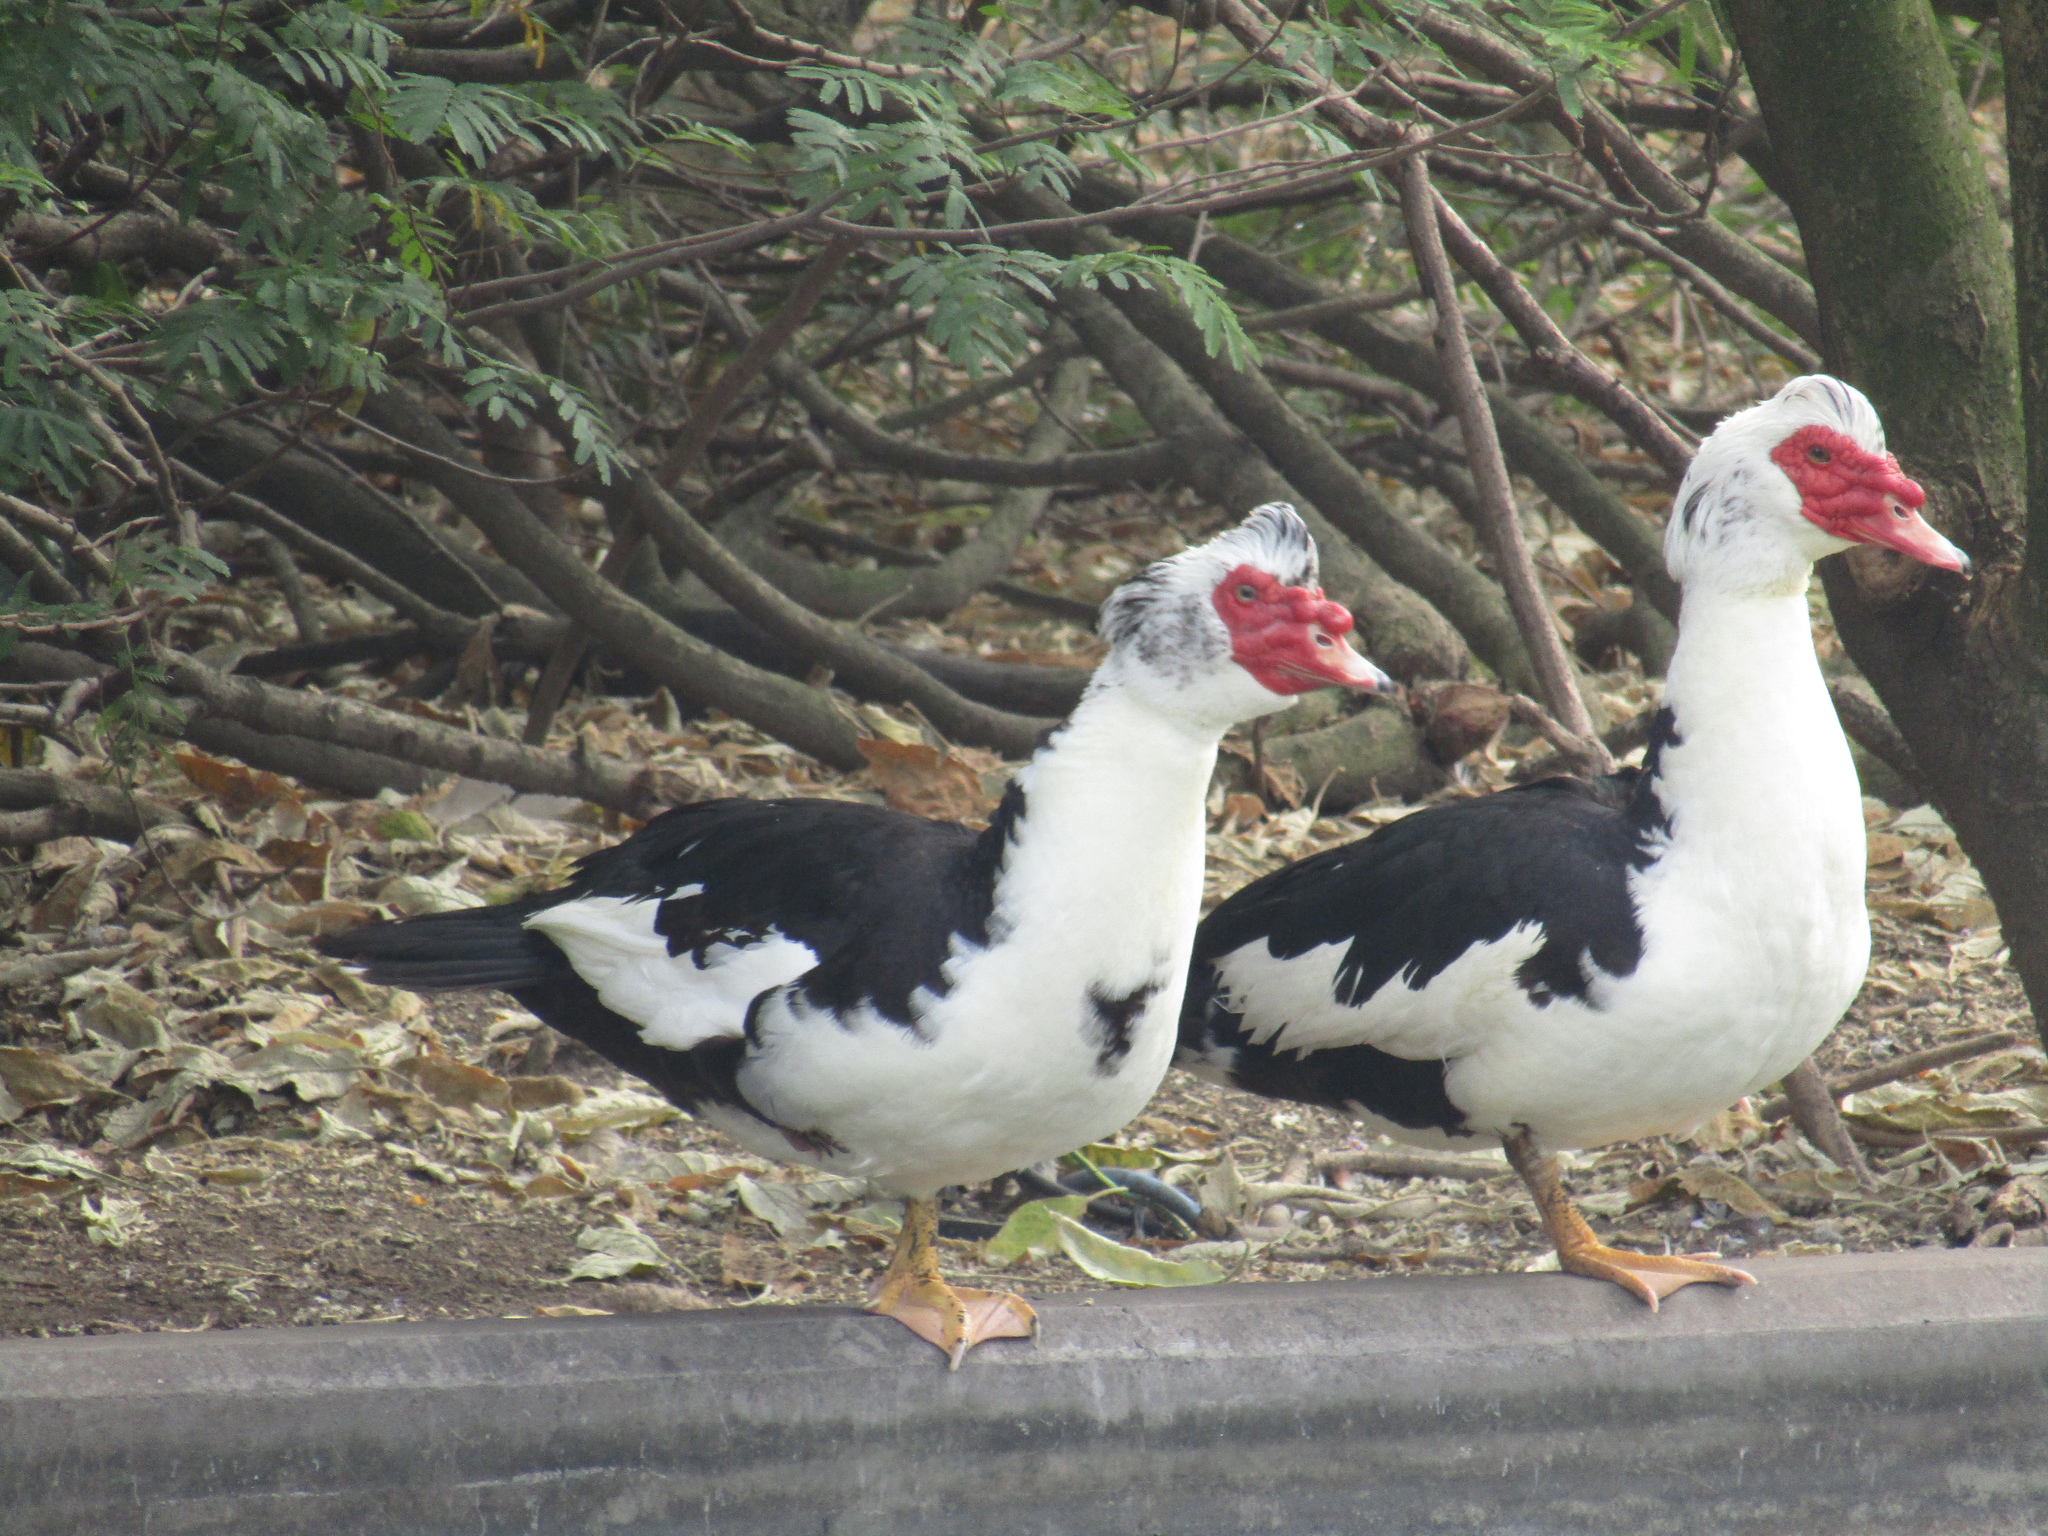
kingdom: Animalia
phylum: Chordata
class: Aves
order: Anseriformes
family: Anatidae
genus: Cairina
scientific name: Cairina moschata
